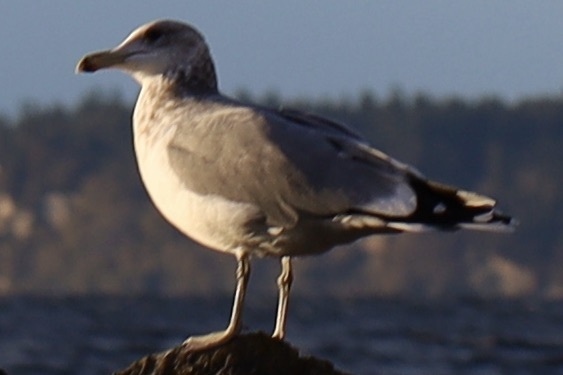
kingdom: Animalia
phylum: Chordata
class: Aves
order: Charadriiformes
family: Laridae
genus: Larus
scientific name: Larus californicus
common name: California gull
